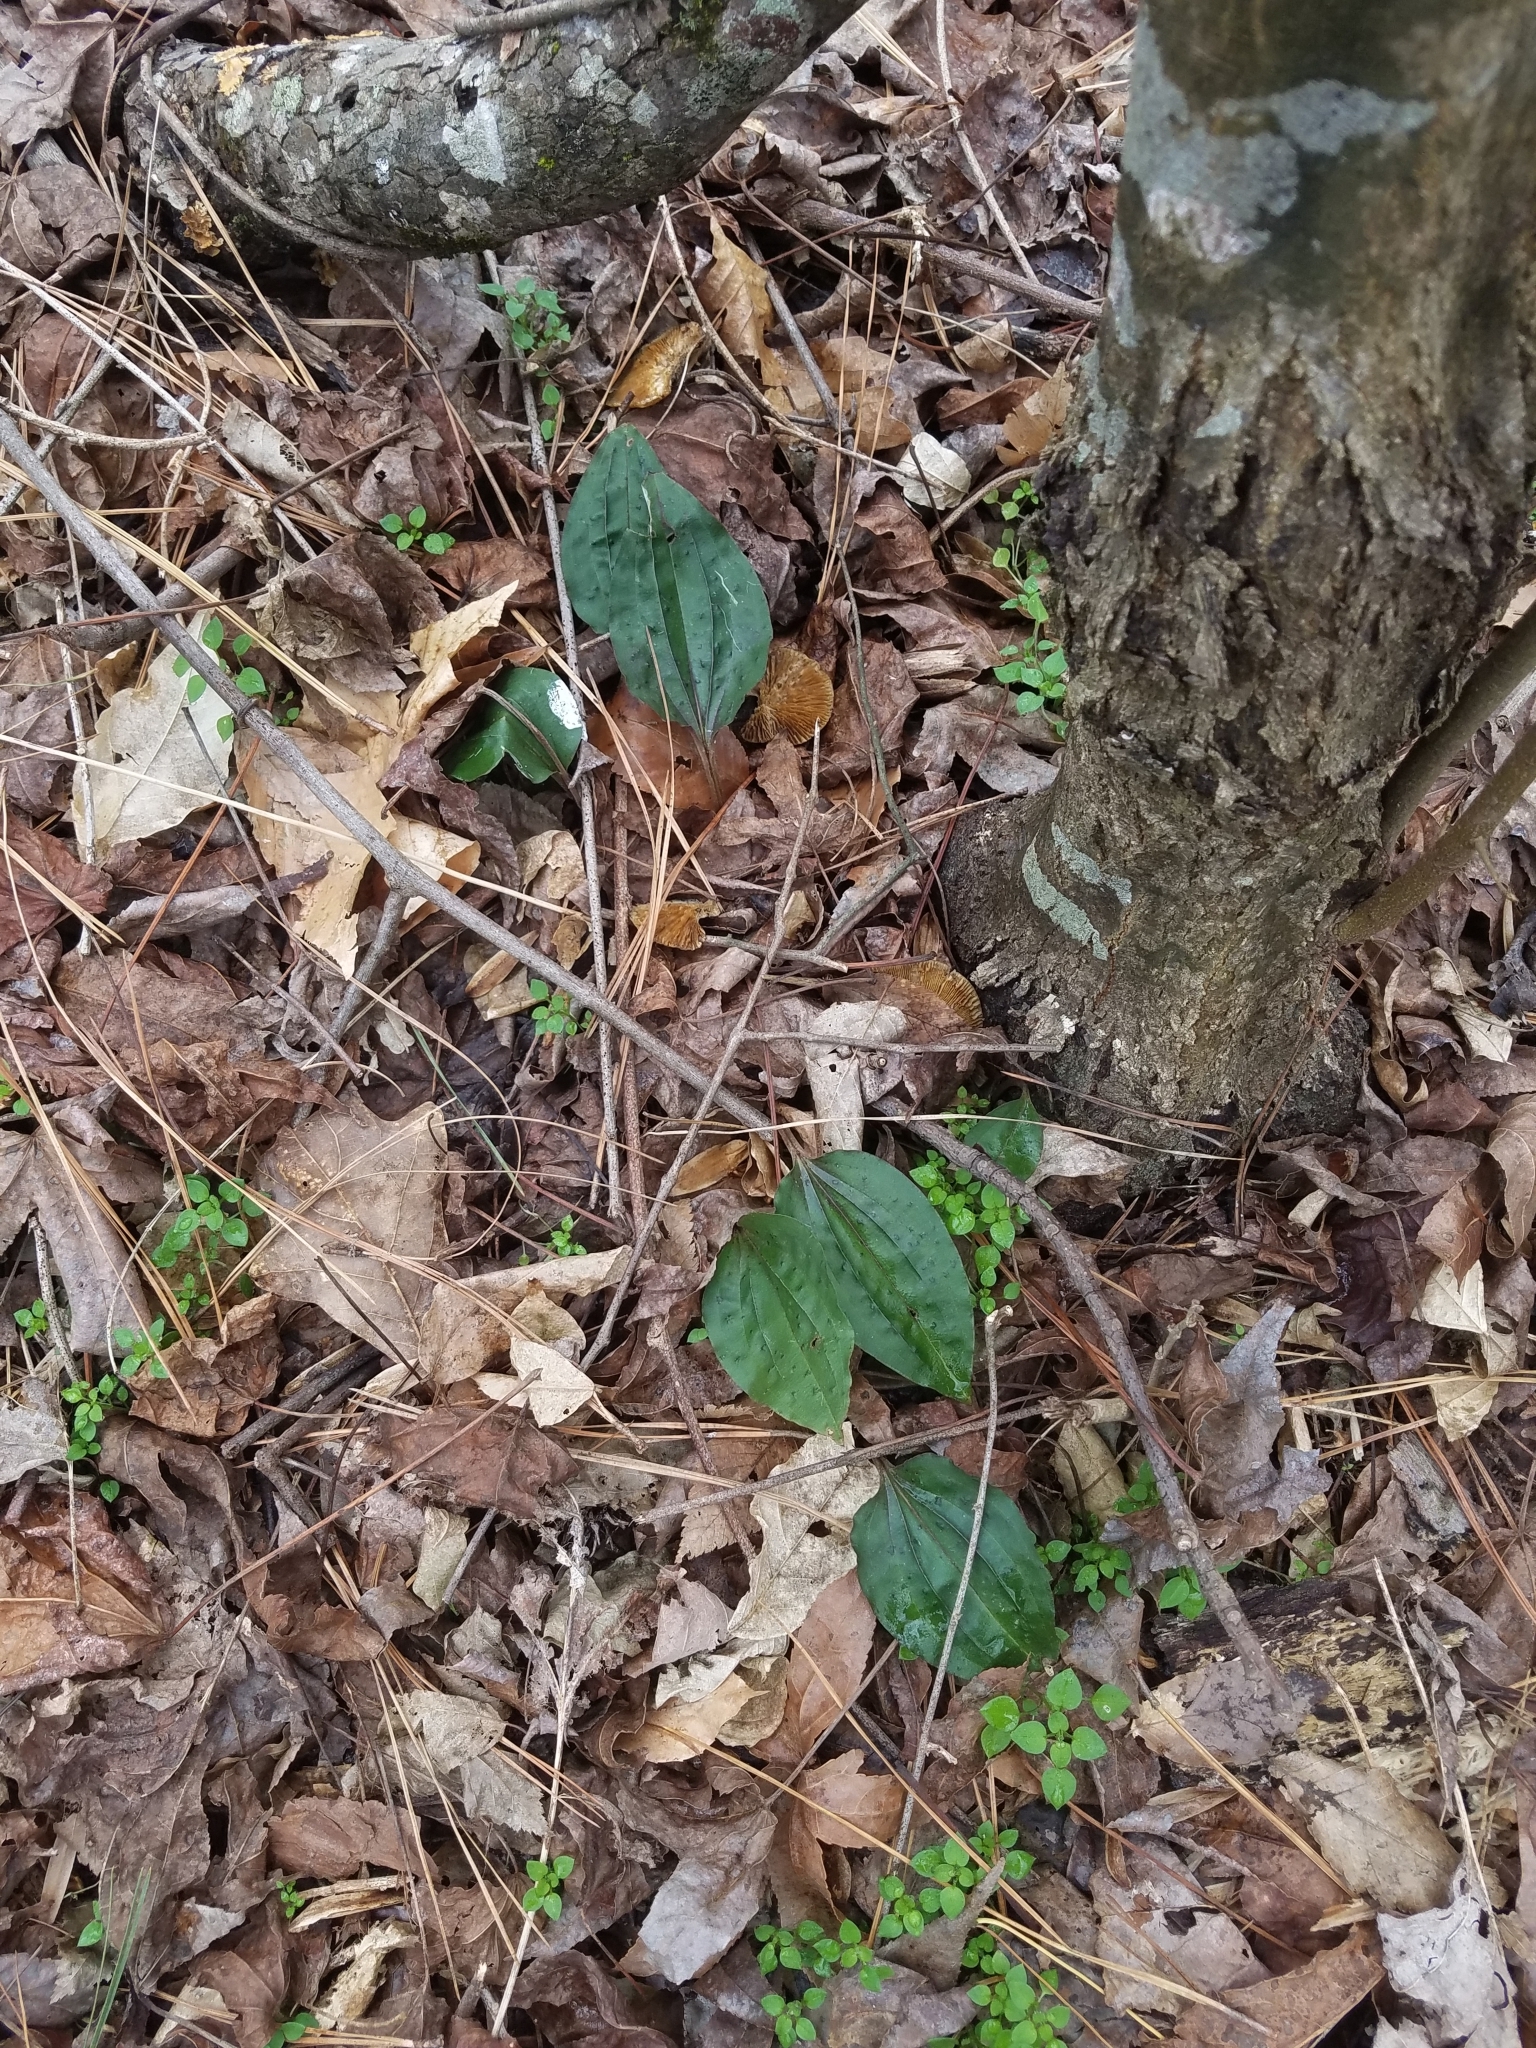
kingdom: Plantae
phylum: Tracheophyta
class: Liliopsida
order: Asparagales
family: Orchidaceae
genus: Tipularia
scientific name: Tipularia discolor
